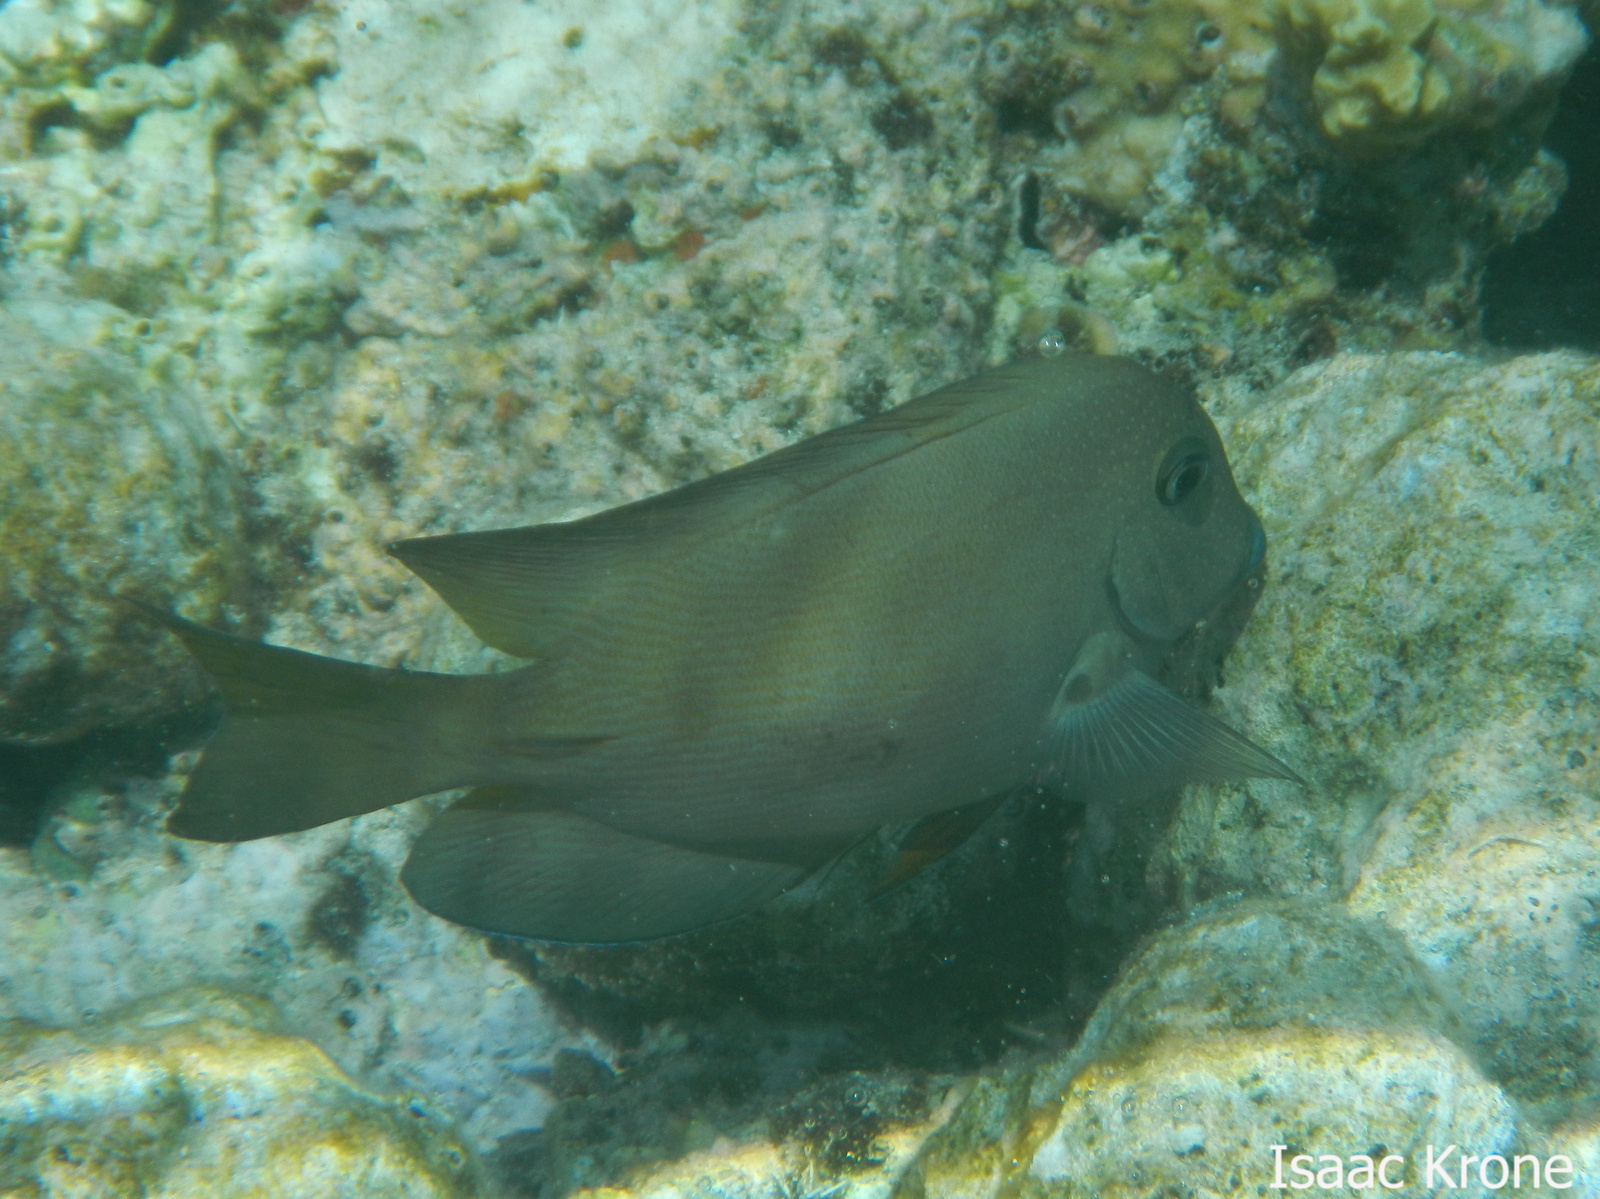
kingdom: Animalia
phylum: Chordata
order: Perciformes
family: Acanthuridae
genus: Ctenochaetus
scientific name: Ctenochaetus cyanocheilus
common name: Short-tail bristle-tooth
